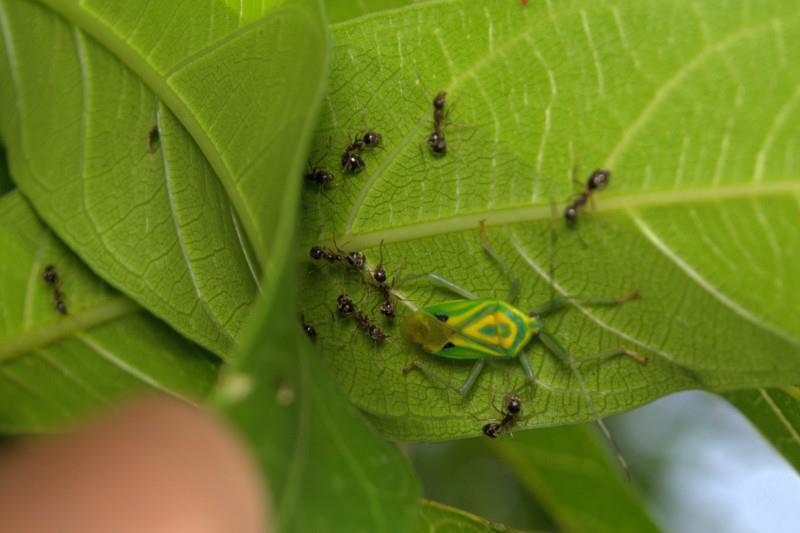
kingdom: Animalia
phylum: Arthropoda
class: Insecta
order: Hemiptera
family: Urostylididae
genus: Urolabida
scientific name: Urolabida
